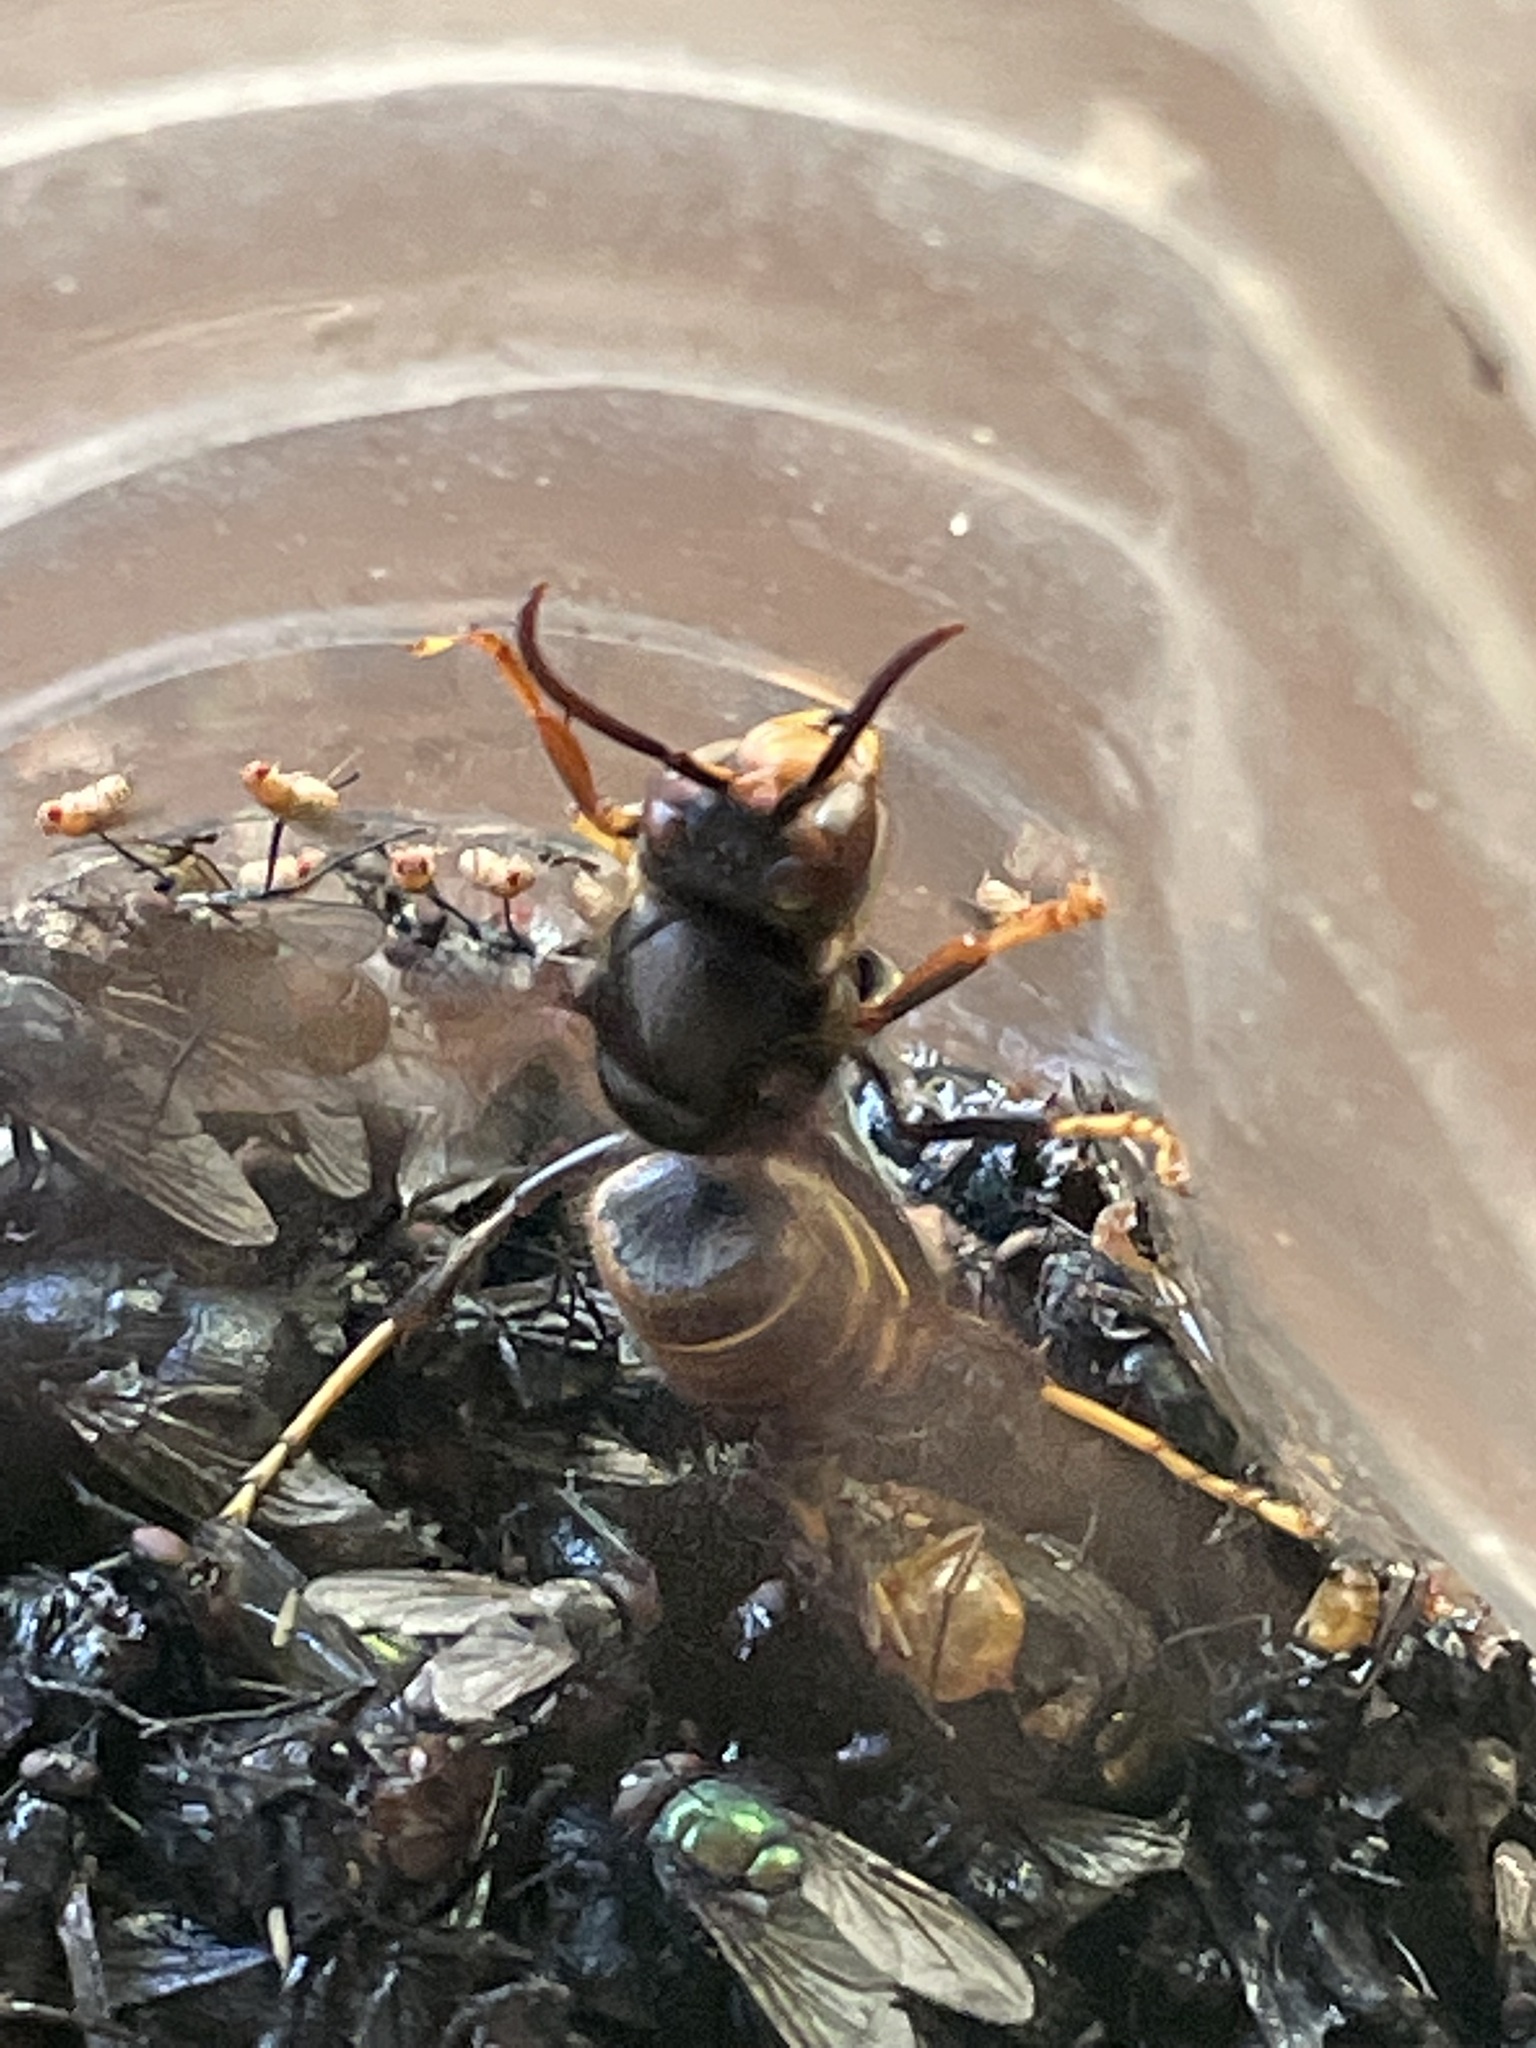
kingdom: Animalia
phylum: Arthropoda
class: Insecta
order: Hymenoptera
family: Vespidae
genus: Vespa
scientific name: Vespa velutina
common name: Asian hornet
